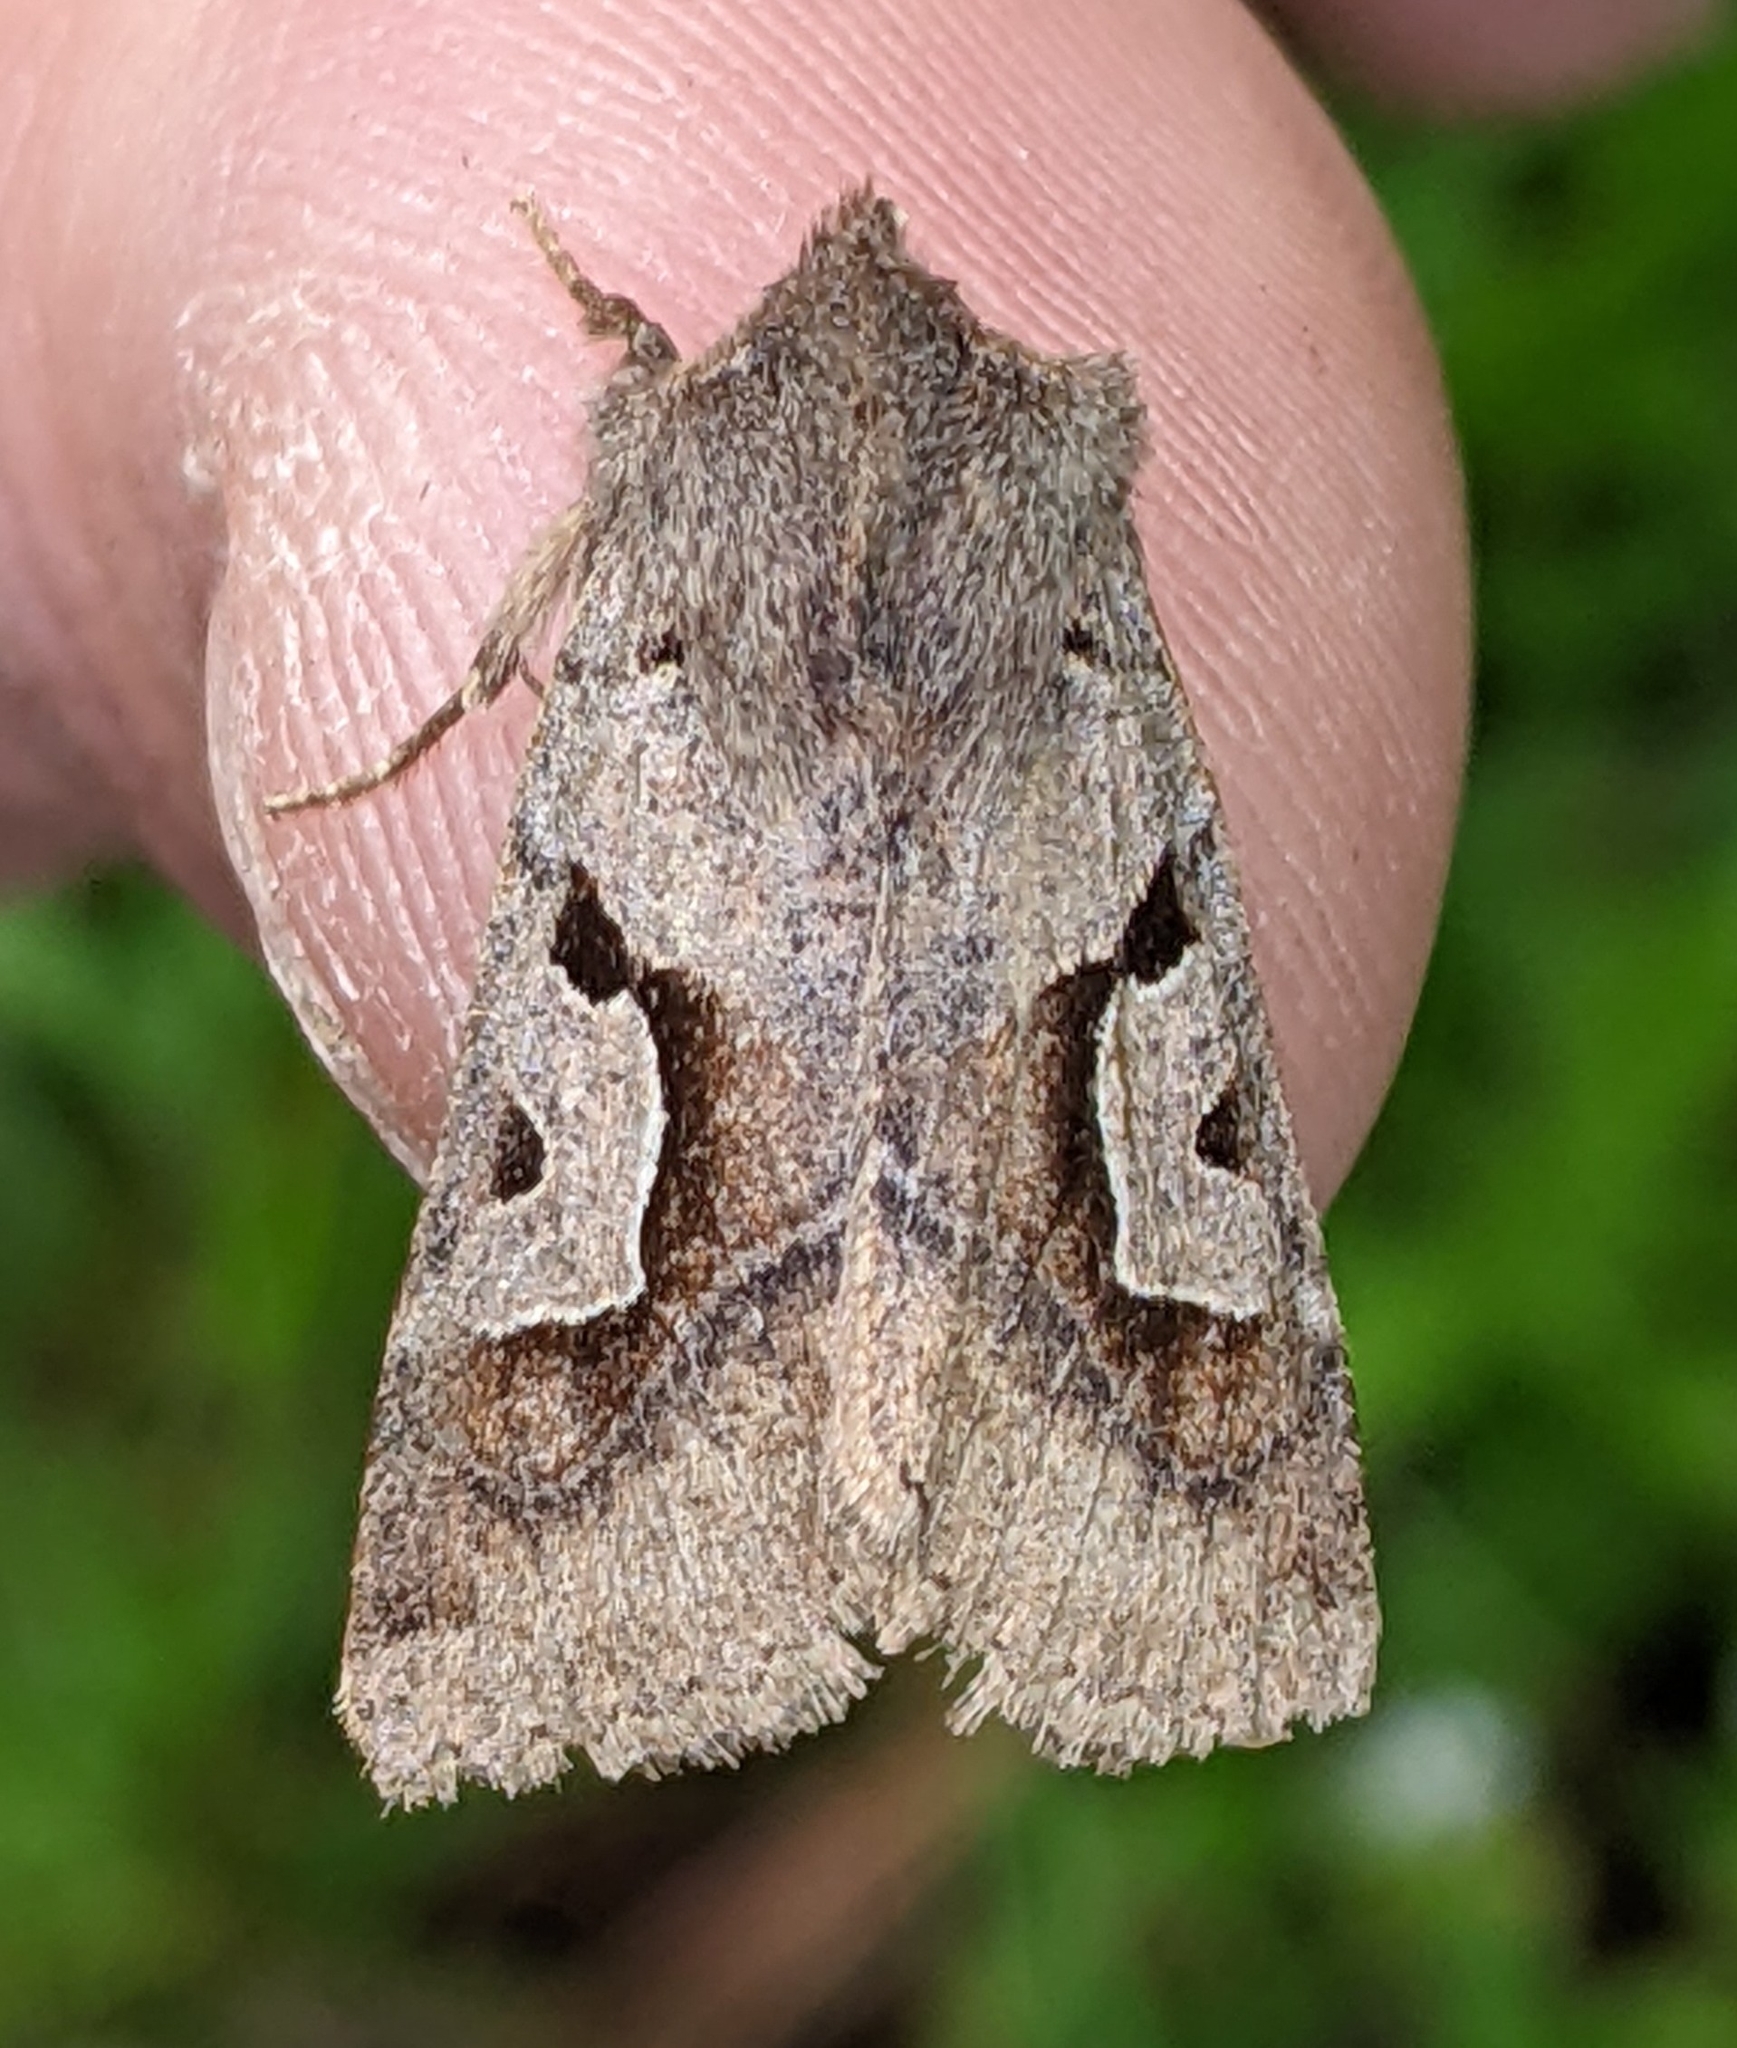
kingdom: Animalia
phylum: Arthropoda
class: Insecta
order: Lepidoptera
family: Noctuidae
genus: Acerra
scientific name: Acerra normalis
